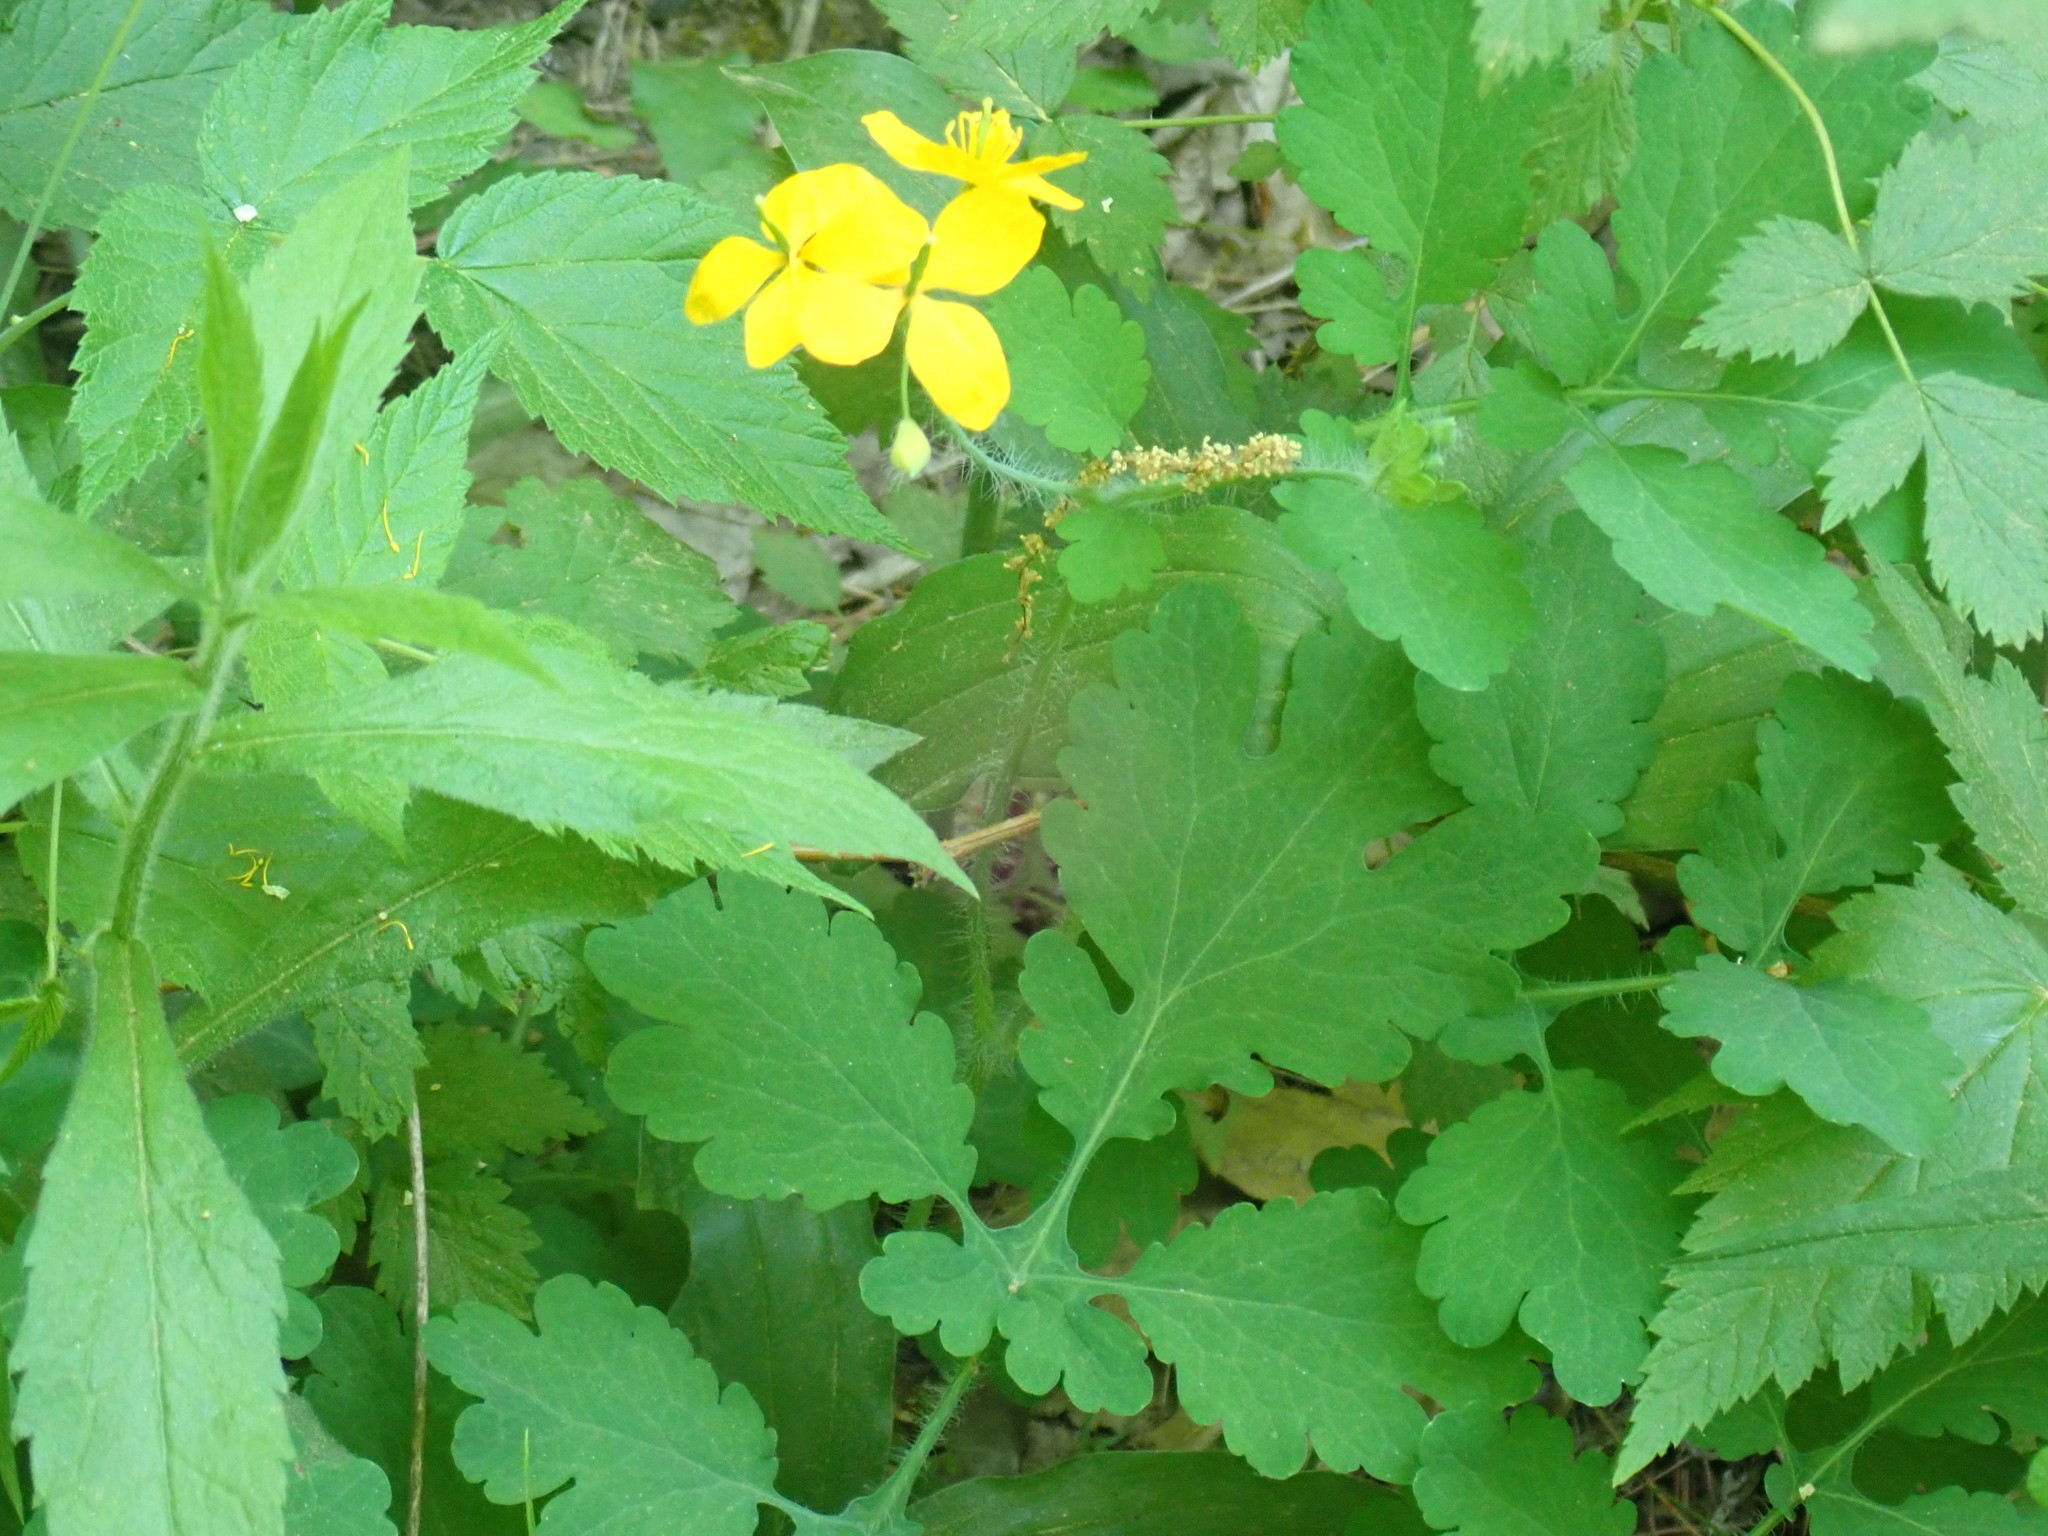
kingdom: Plantae
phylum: Tracheophyta
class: Magnoliopsida
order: Ranunculales
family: Papaveraceae
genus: Chelidonium
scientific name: Chelidonium majus
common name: Greater celandine
